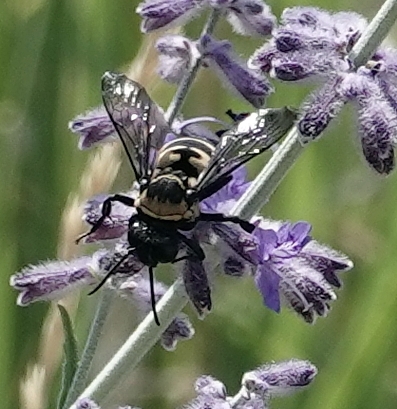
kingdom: Animalia
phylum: Arthropoda
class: Insecta
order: Hymenoptera
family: Apidae
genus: Triepeolus
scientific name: Triepeolus concavus
